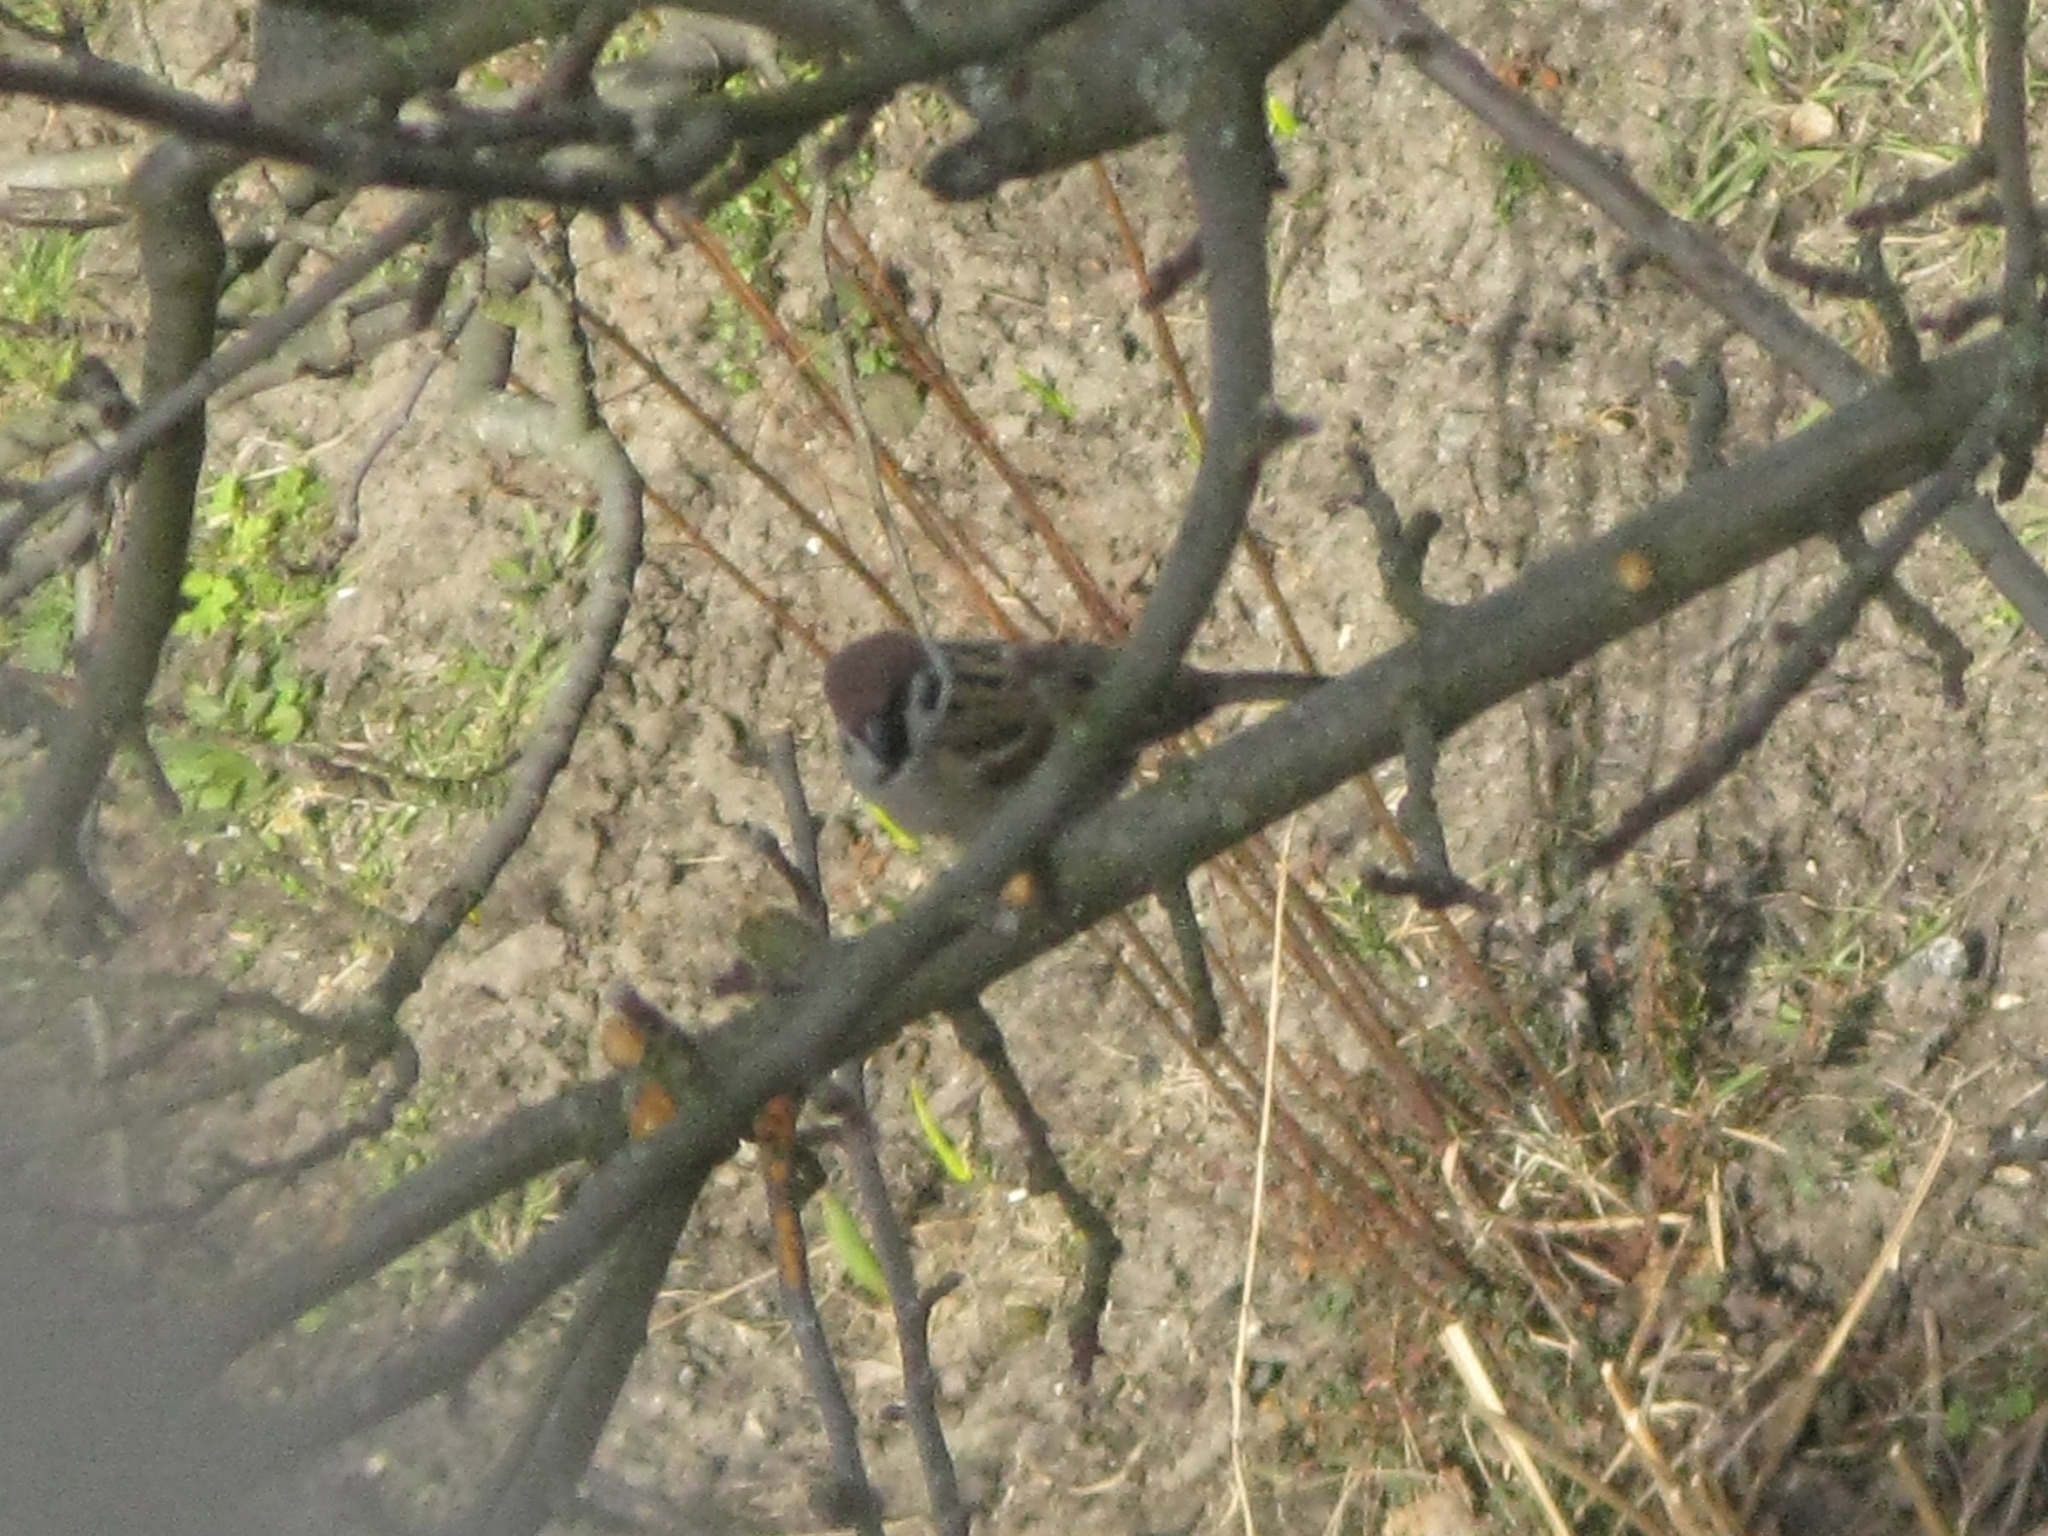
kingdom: Animalia
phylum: Chordata
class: Aves
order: Passeriformes
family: Passeridae
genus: Passer
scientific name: Passer montanus
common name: Eurasian tree sparrow
